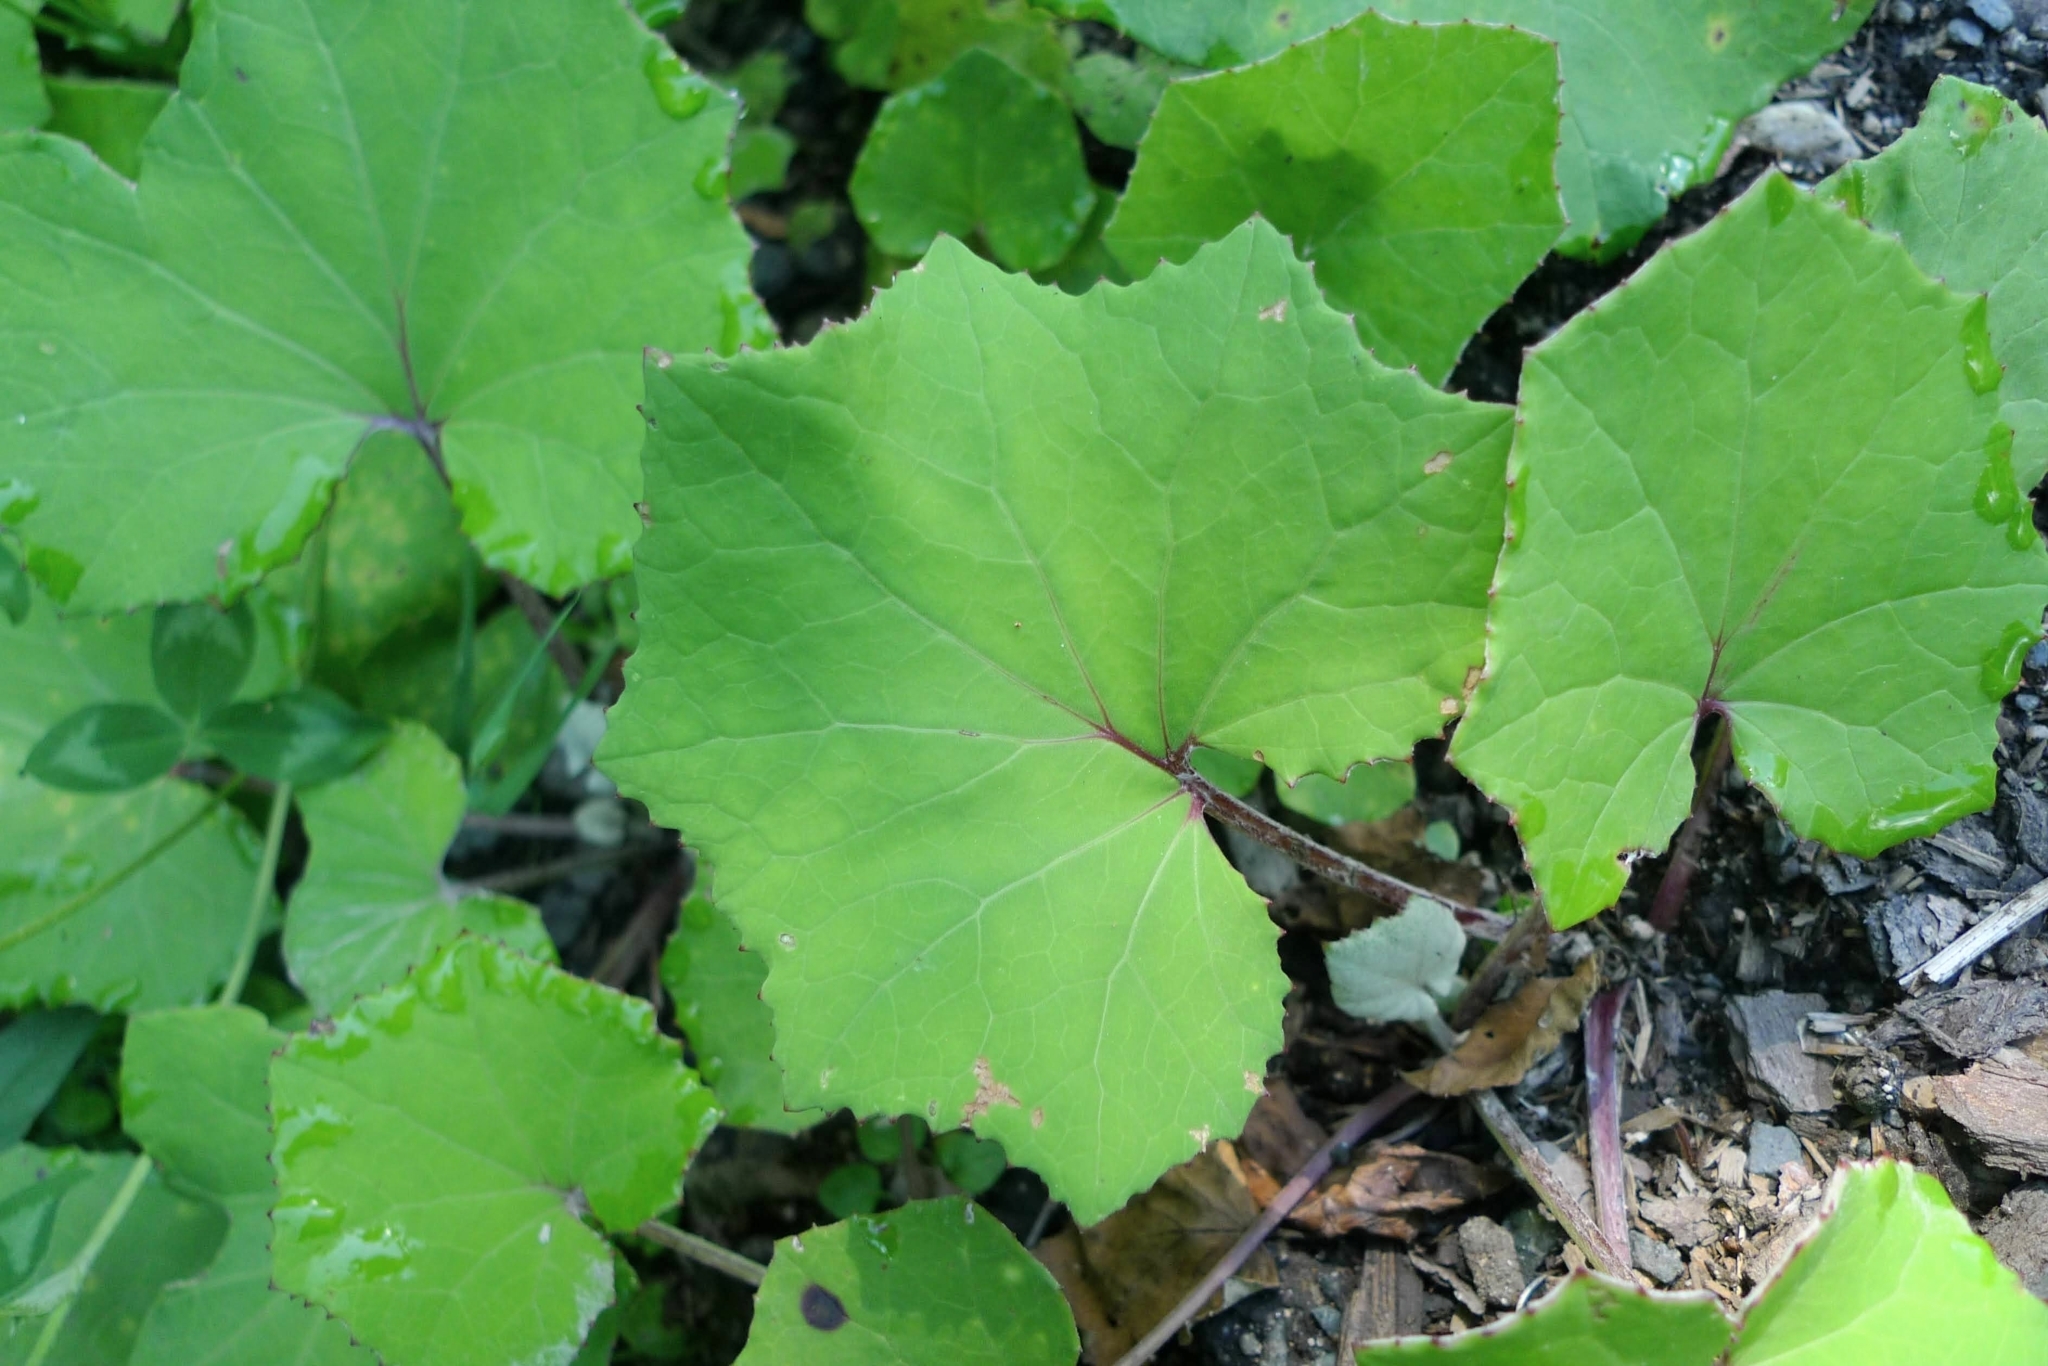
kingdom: Plantae
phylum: Tracheophyta
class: Magnoliopsida
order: Asterales
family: Asteraceae
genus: Tussilago
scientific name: Tussilago farfara
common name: Coltsfoot
